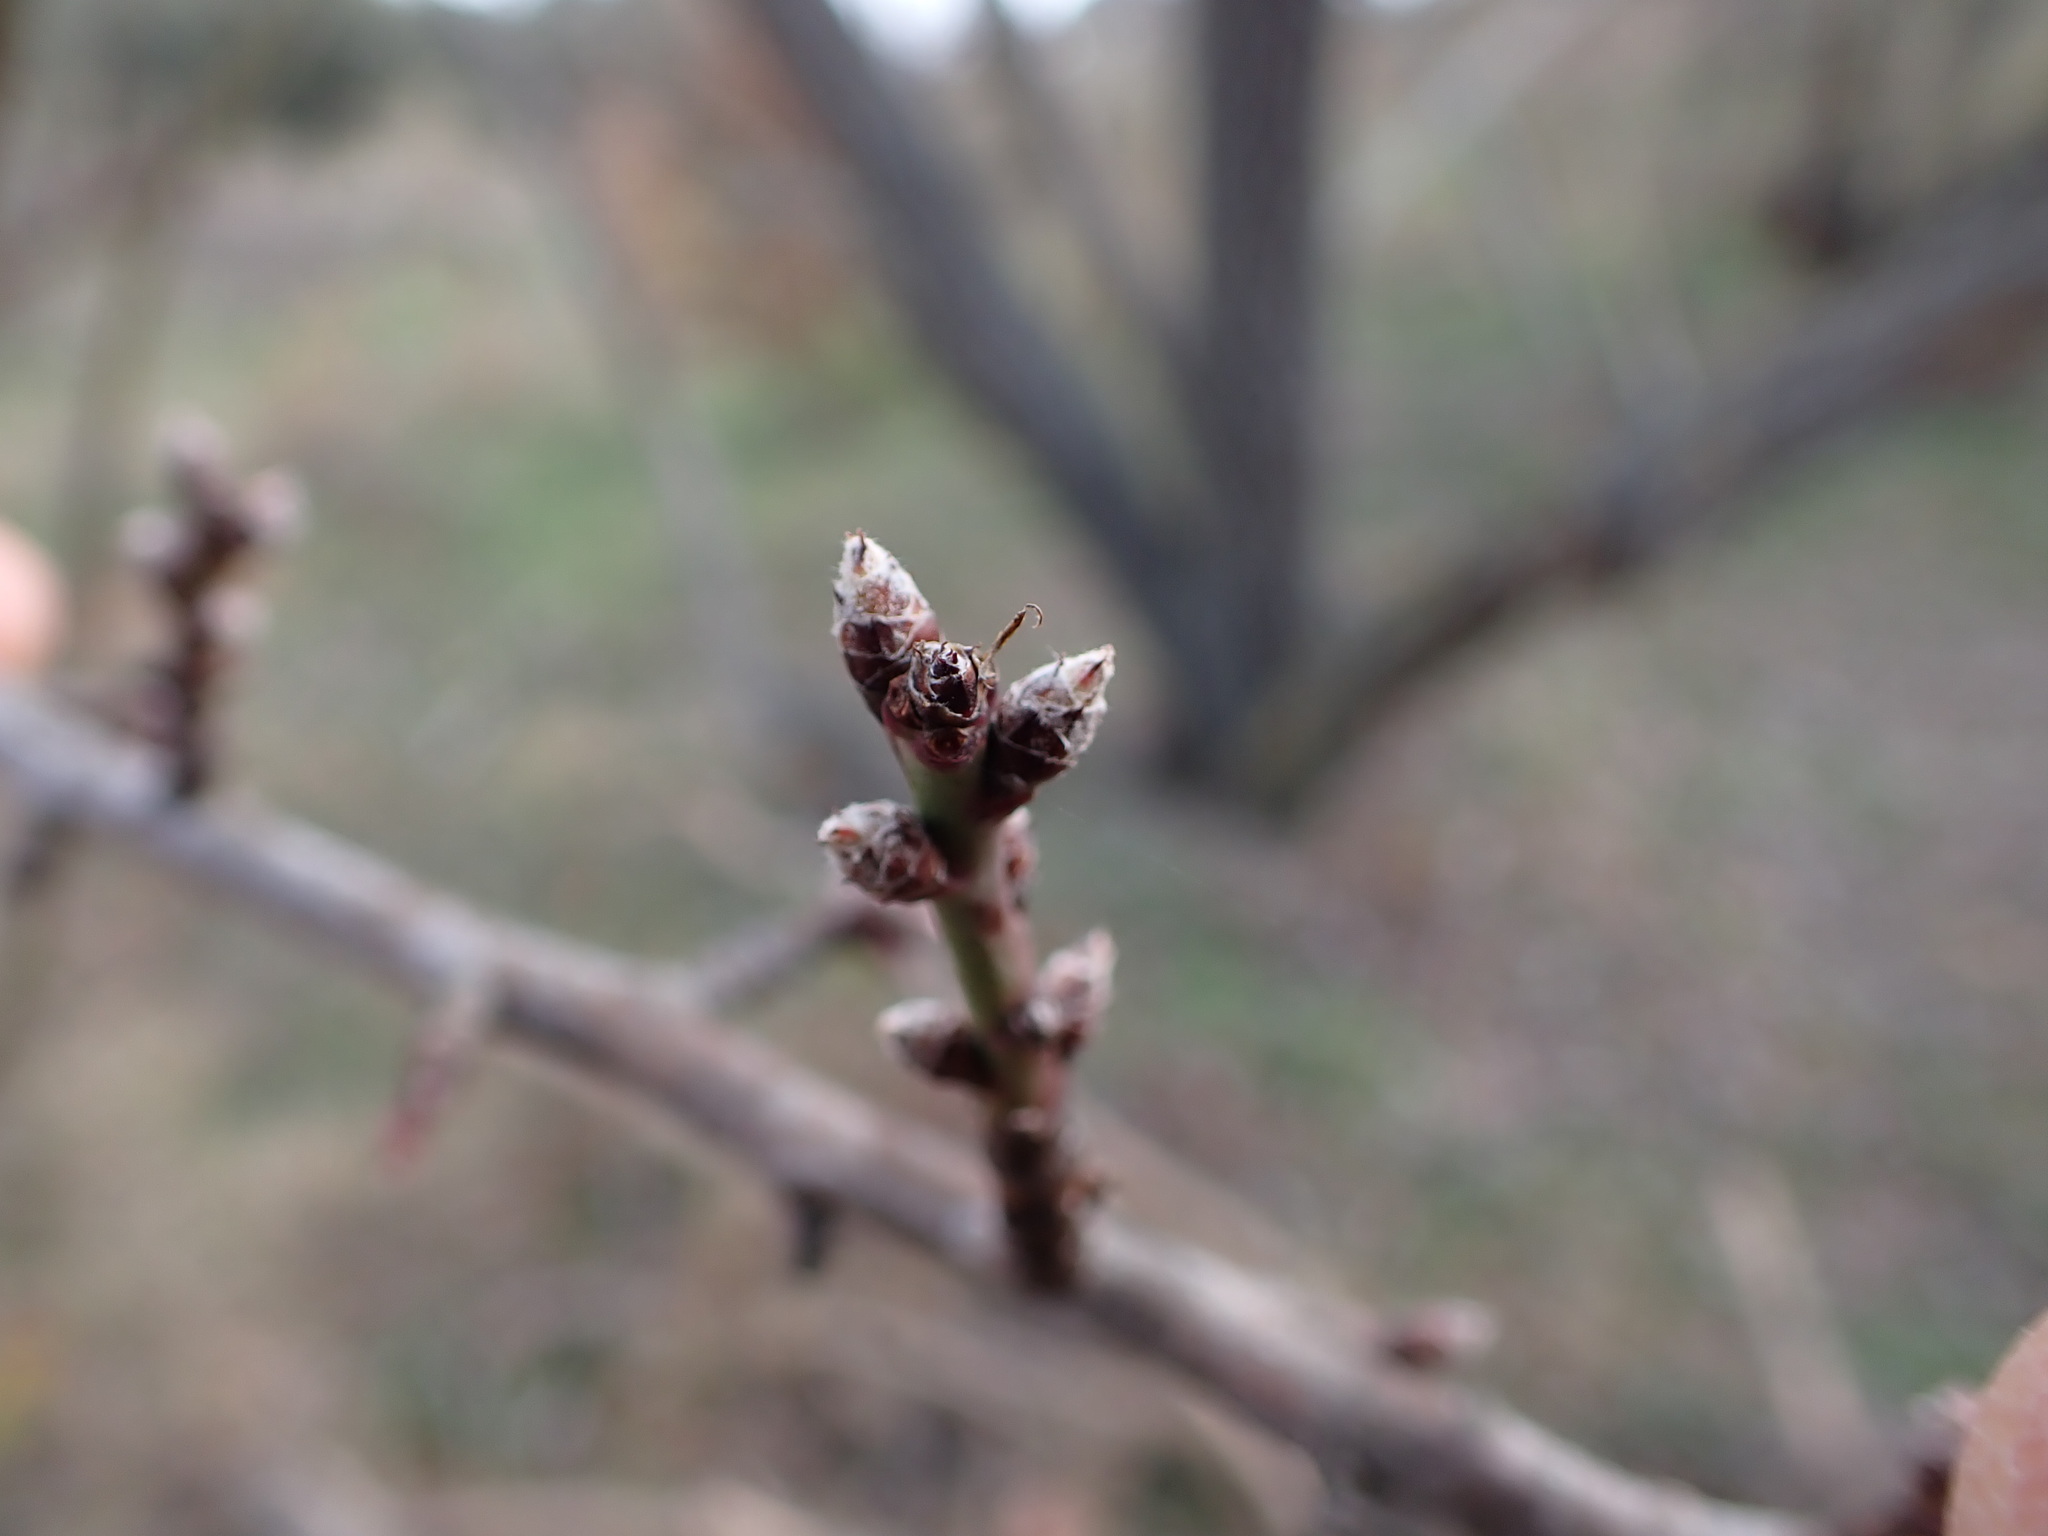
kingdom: Plantae
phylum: Tracheophyta
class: Magnoliopsida
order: Rosales
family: Rosaceae
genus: Prunus
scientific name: Prunus amygdalus
